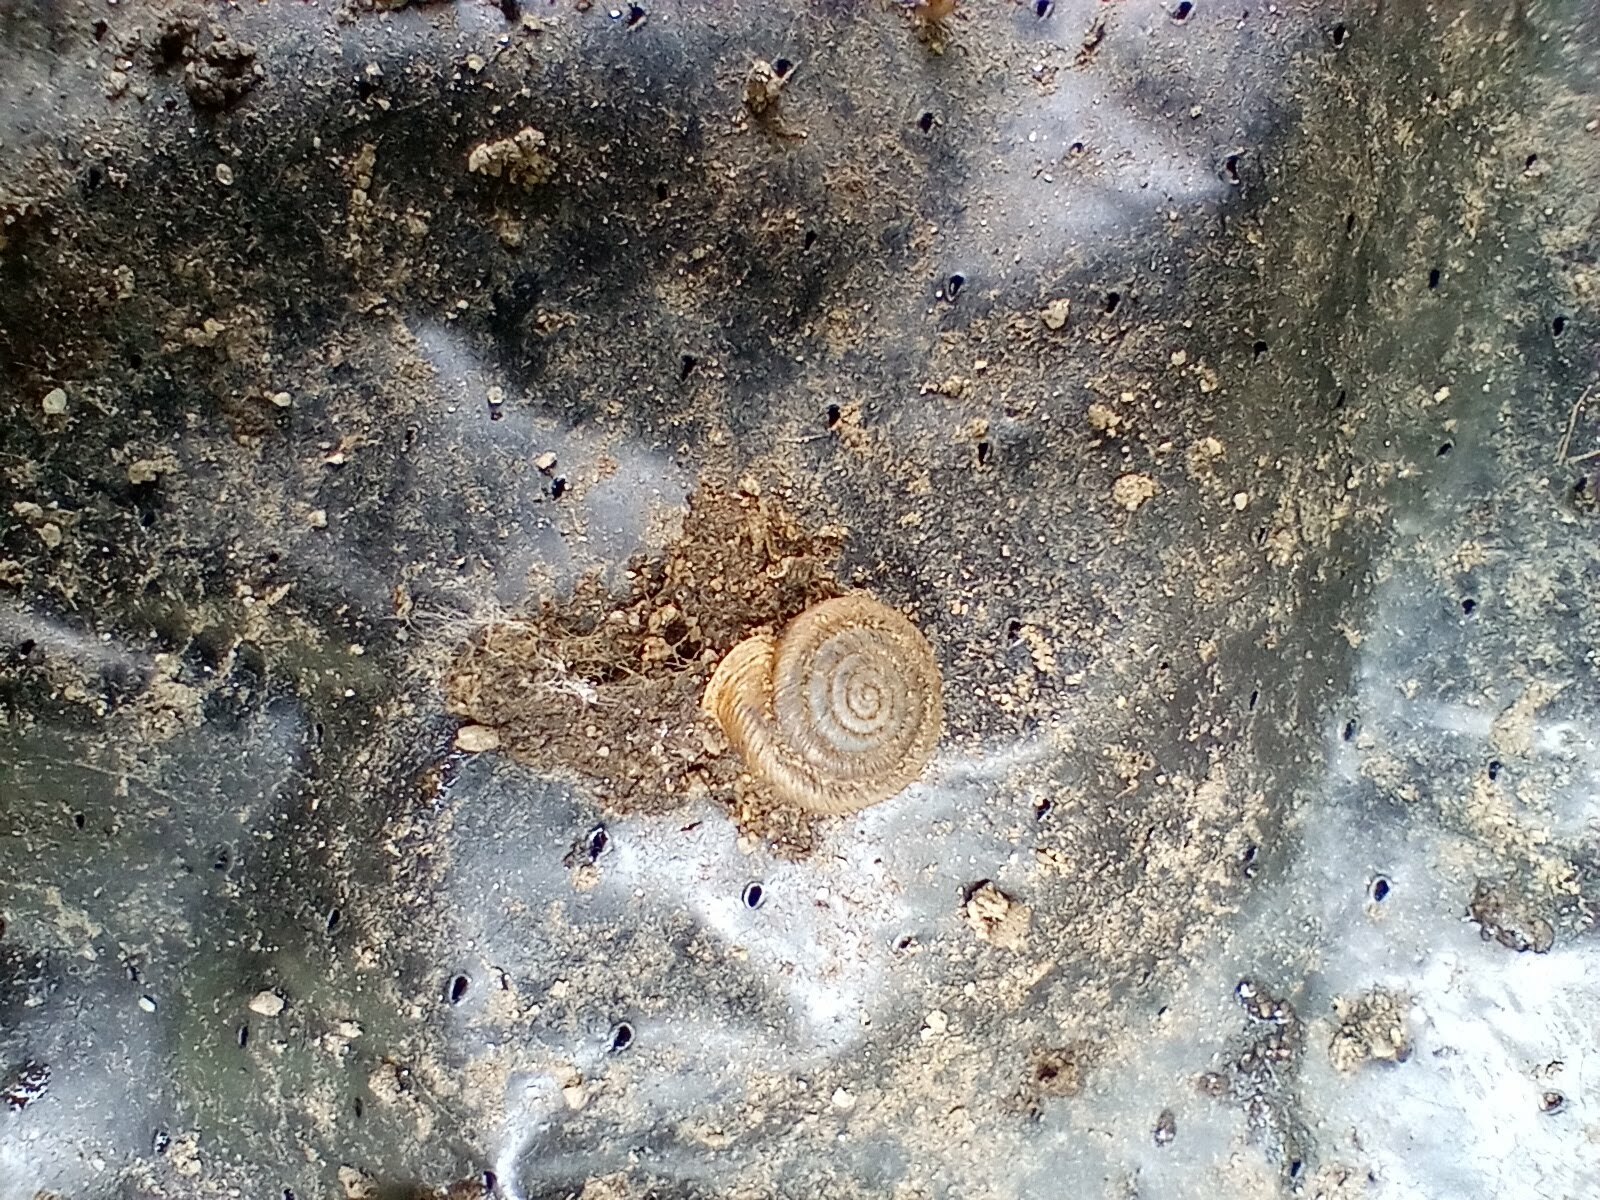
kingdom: Animalia
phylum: Mollusca
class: Gastropoda
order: Stylommatophora
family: Polygyridae
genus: Polygyra
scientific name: Polygyra cereolus
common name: Southern flatcone snail
